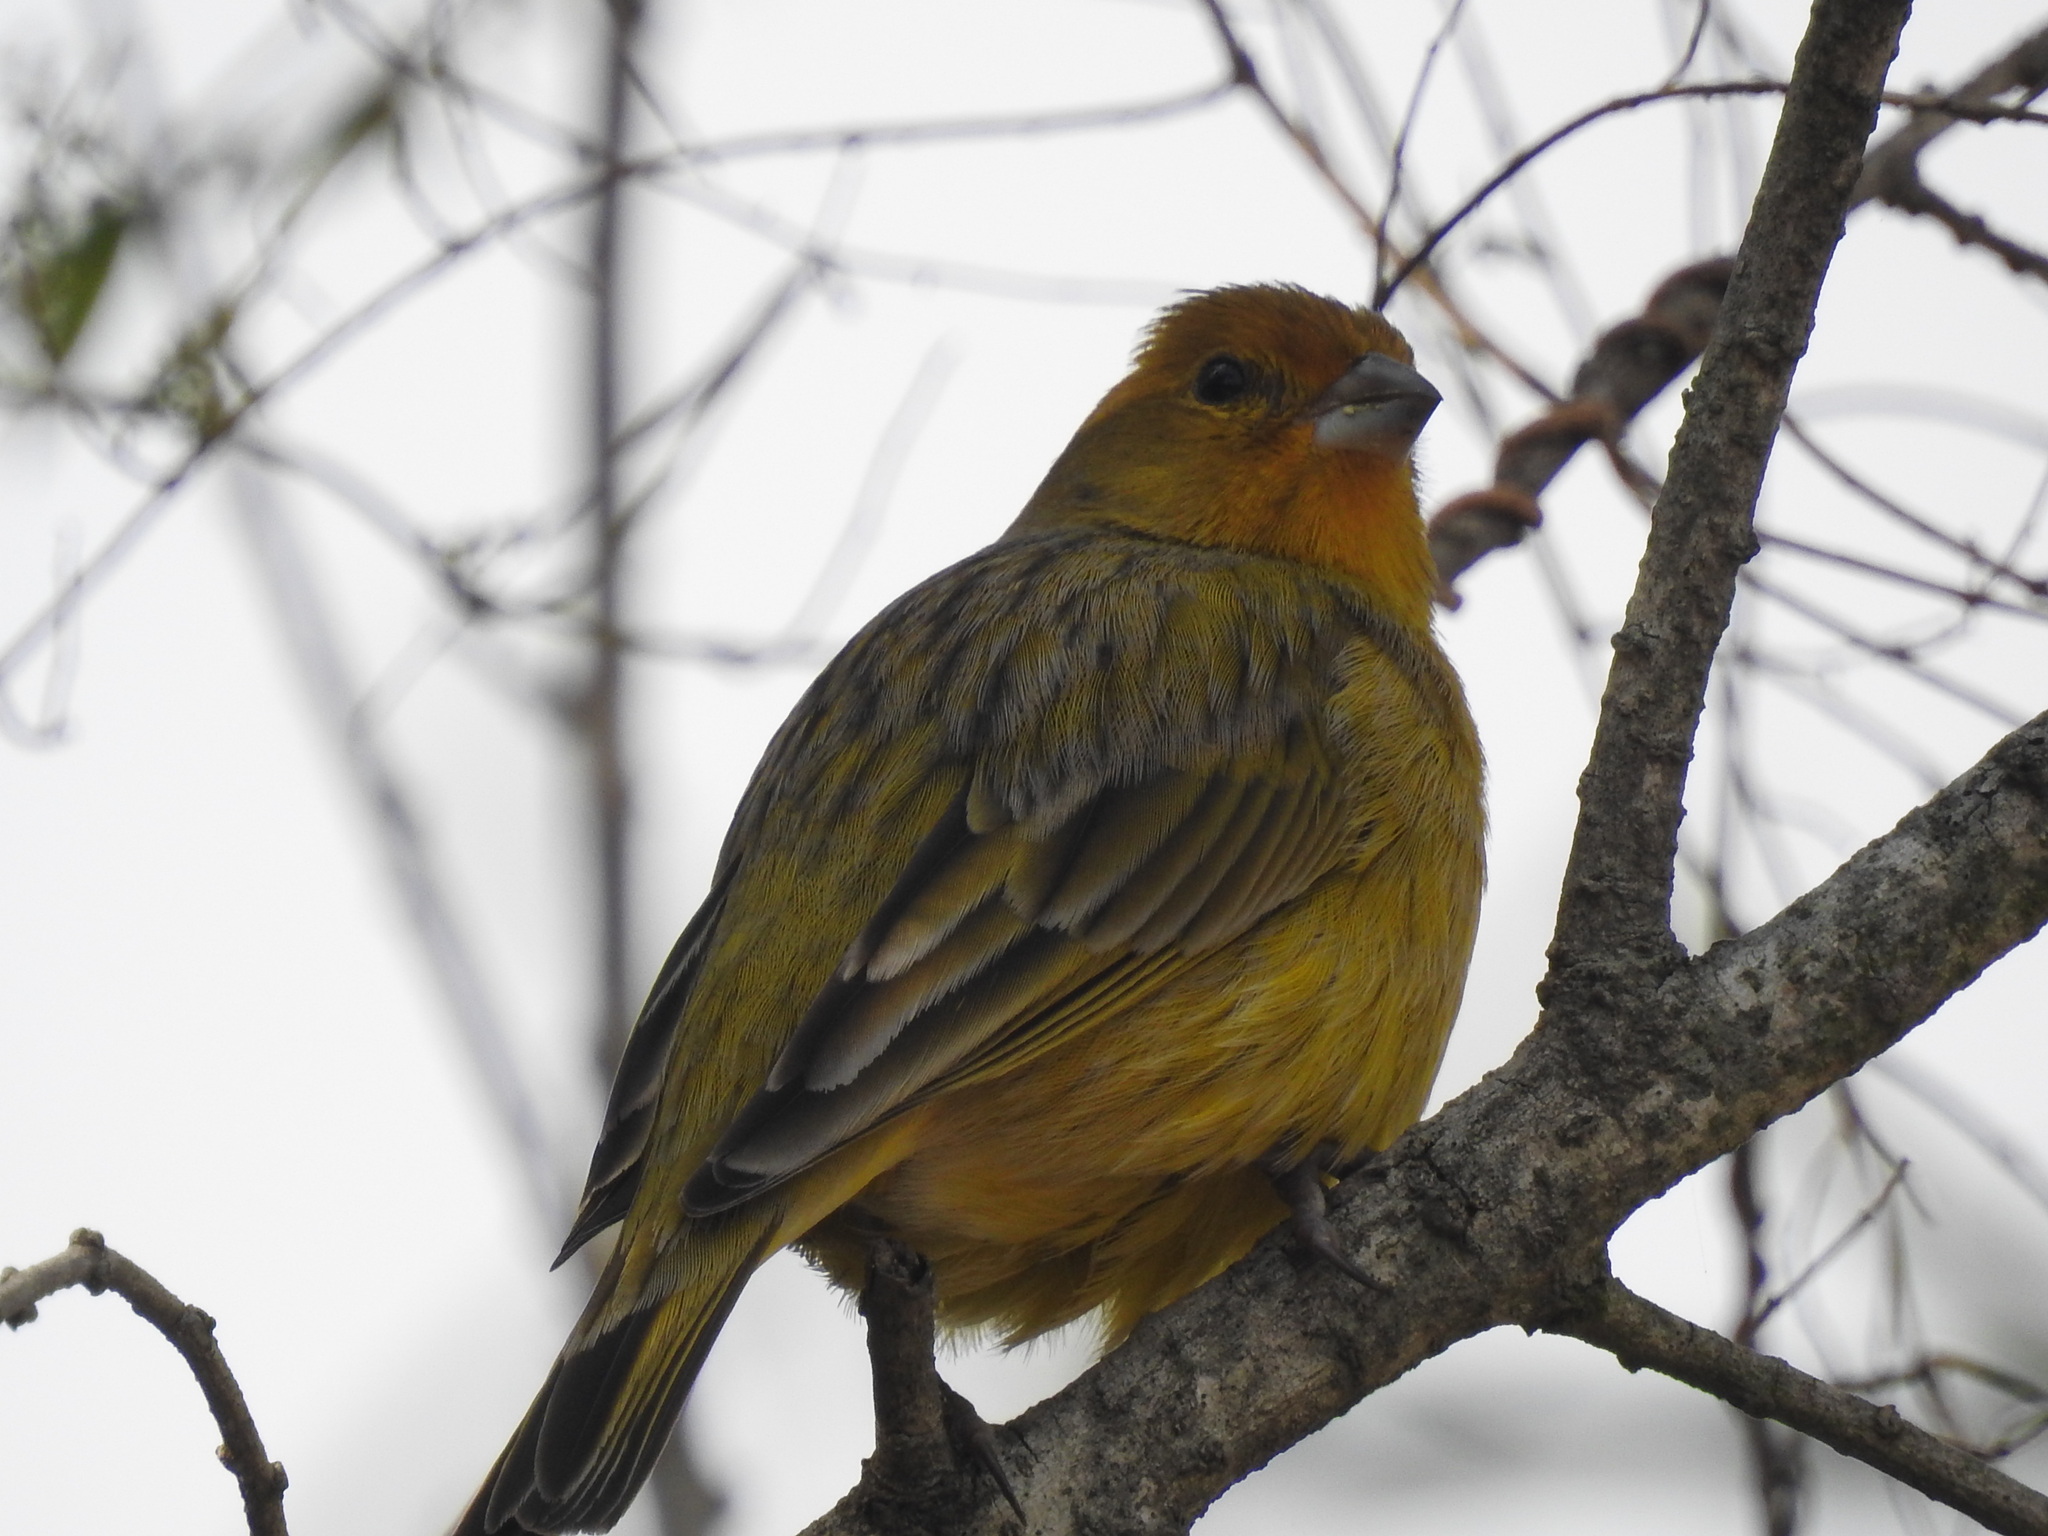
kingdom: Animalia
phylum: Chordata
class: Aves
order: Passeriformes
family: Thraupidae
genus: Sicalis
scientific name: Sicalis flaveola
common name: Saffron finch
